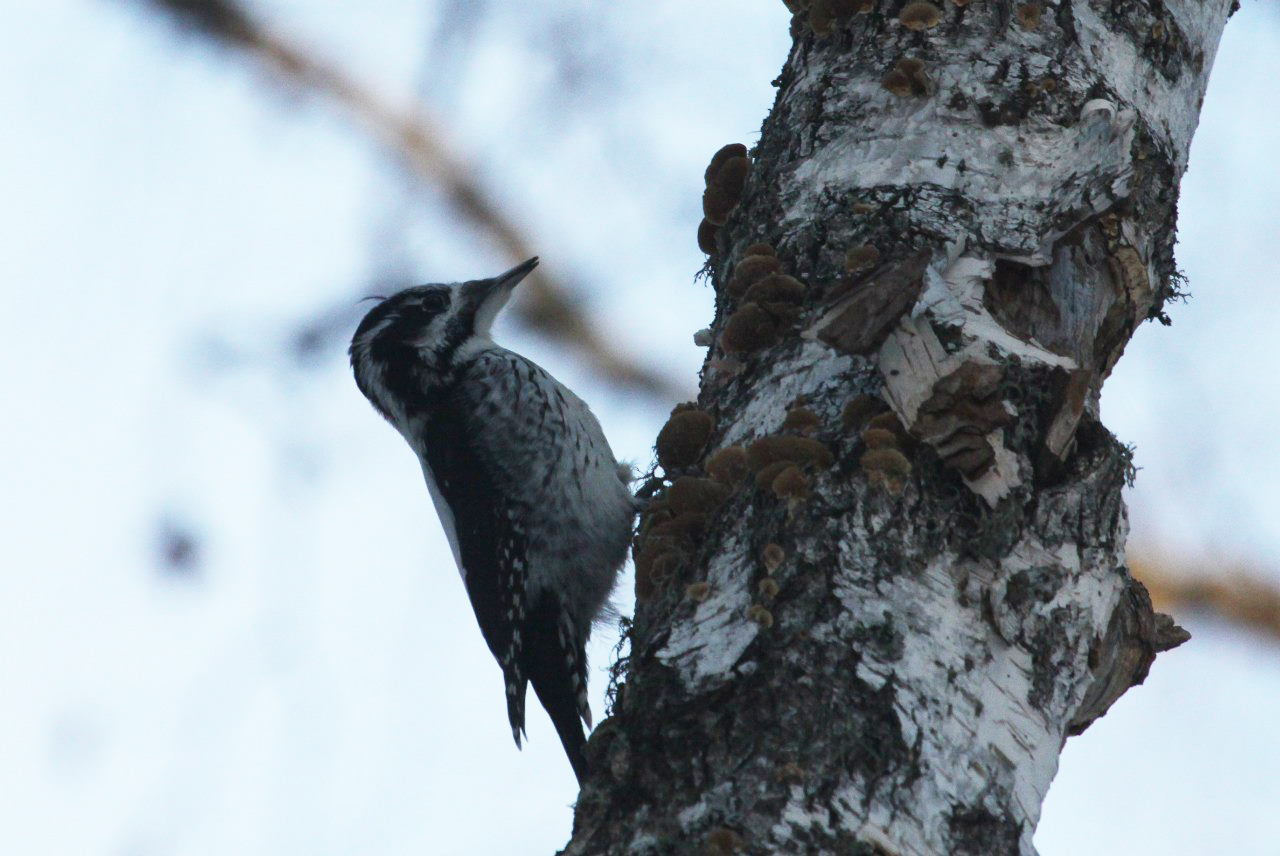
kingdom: Animalia
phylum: Chordata
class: Aves
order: Piciformes
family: Picidae
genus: Picoides
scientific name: Picoides tridactylus
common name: Eurasian three-toed woodpecker
